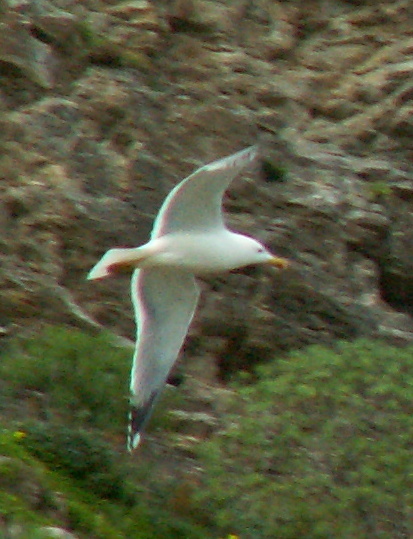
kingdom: Animalia
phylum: Chordata
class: Aves
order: Charadriiformes
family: Laridae
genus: Larus
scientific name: Larus michahellis
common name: Yellow-legged gull
